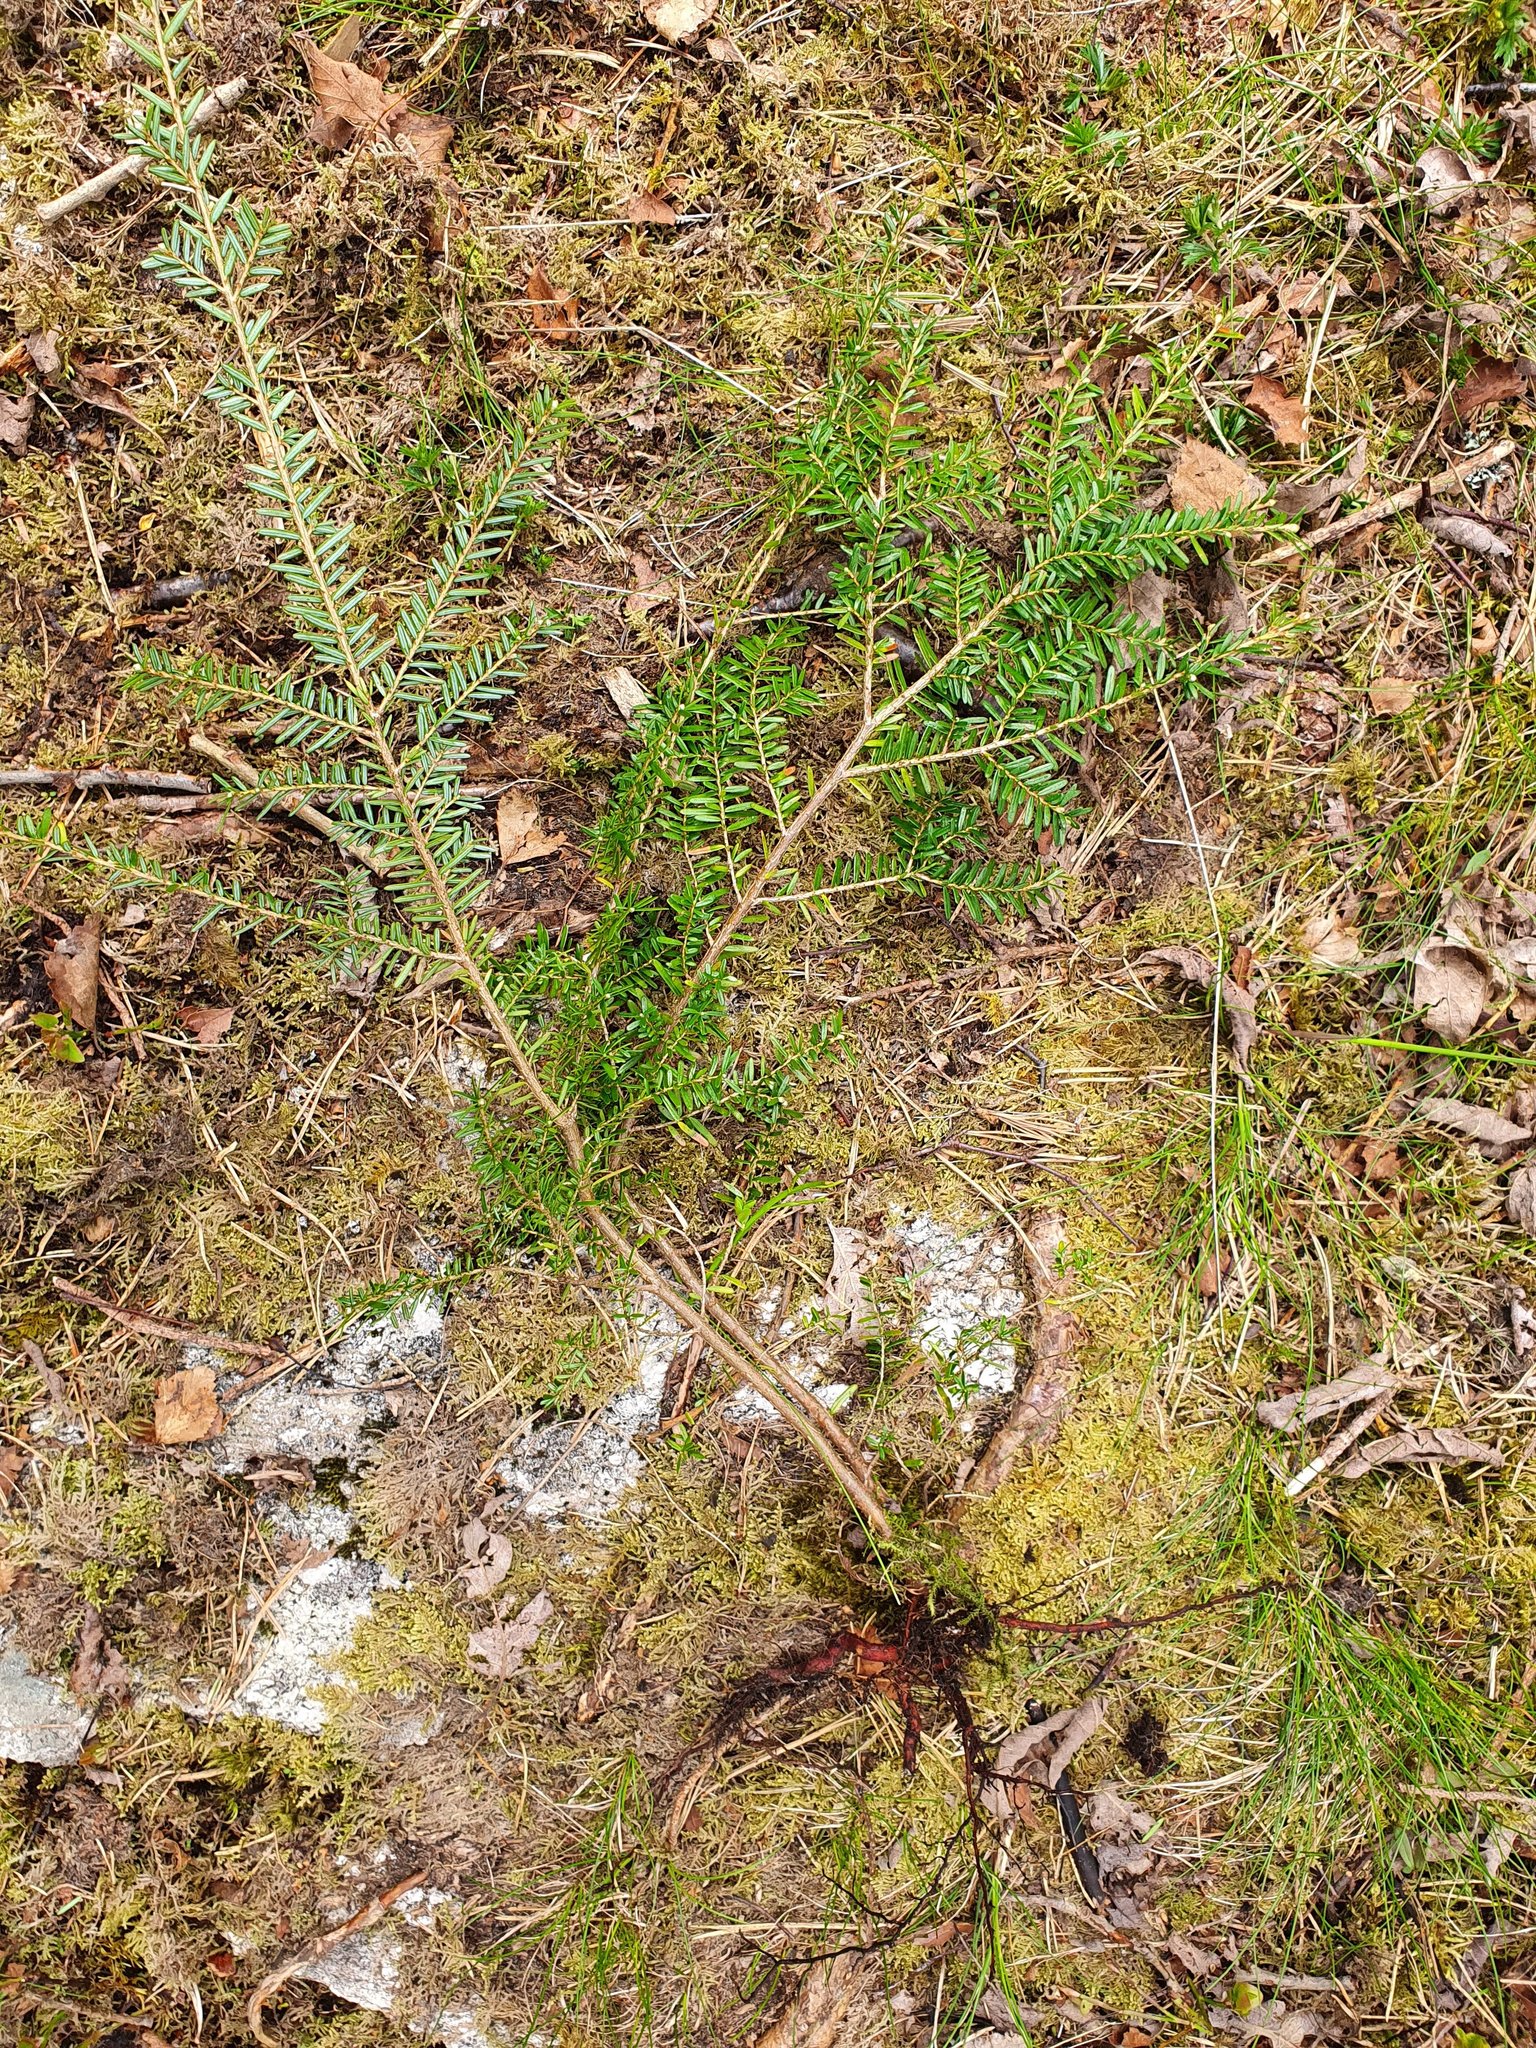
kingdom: Plantae
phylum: Tracheophyta
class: Pinopsida
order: Pinales
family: Pinaceae
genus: Tsuga
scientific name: Tsuga heterophylla
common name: Western hemlock
